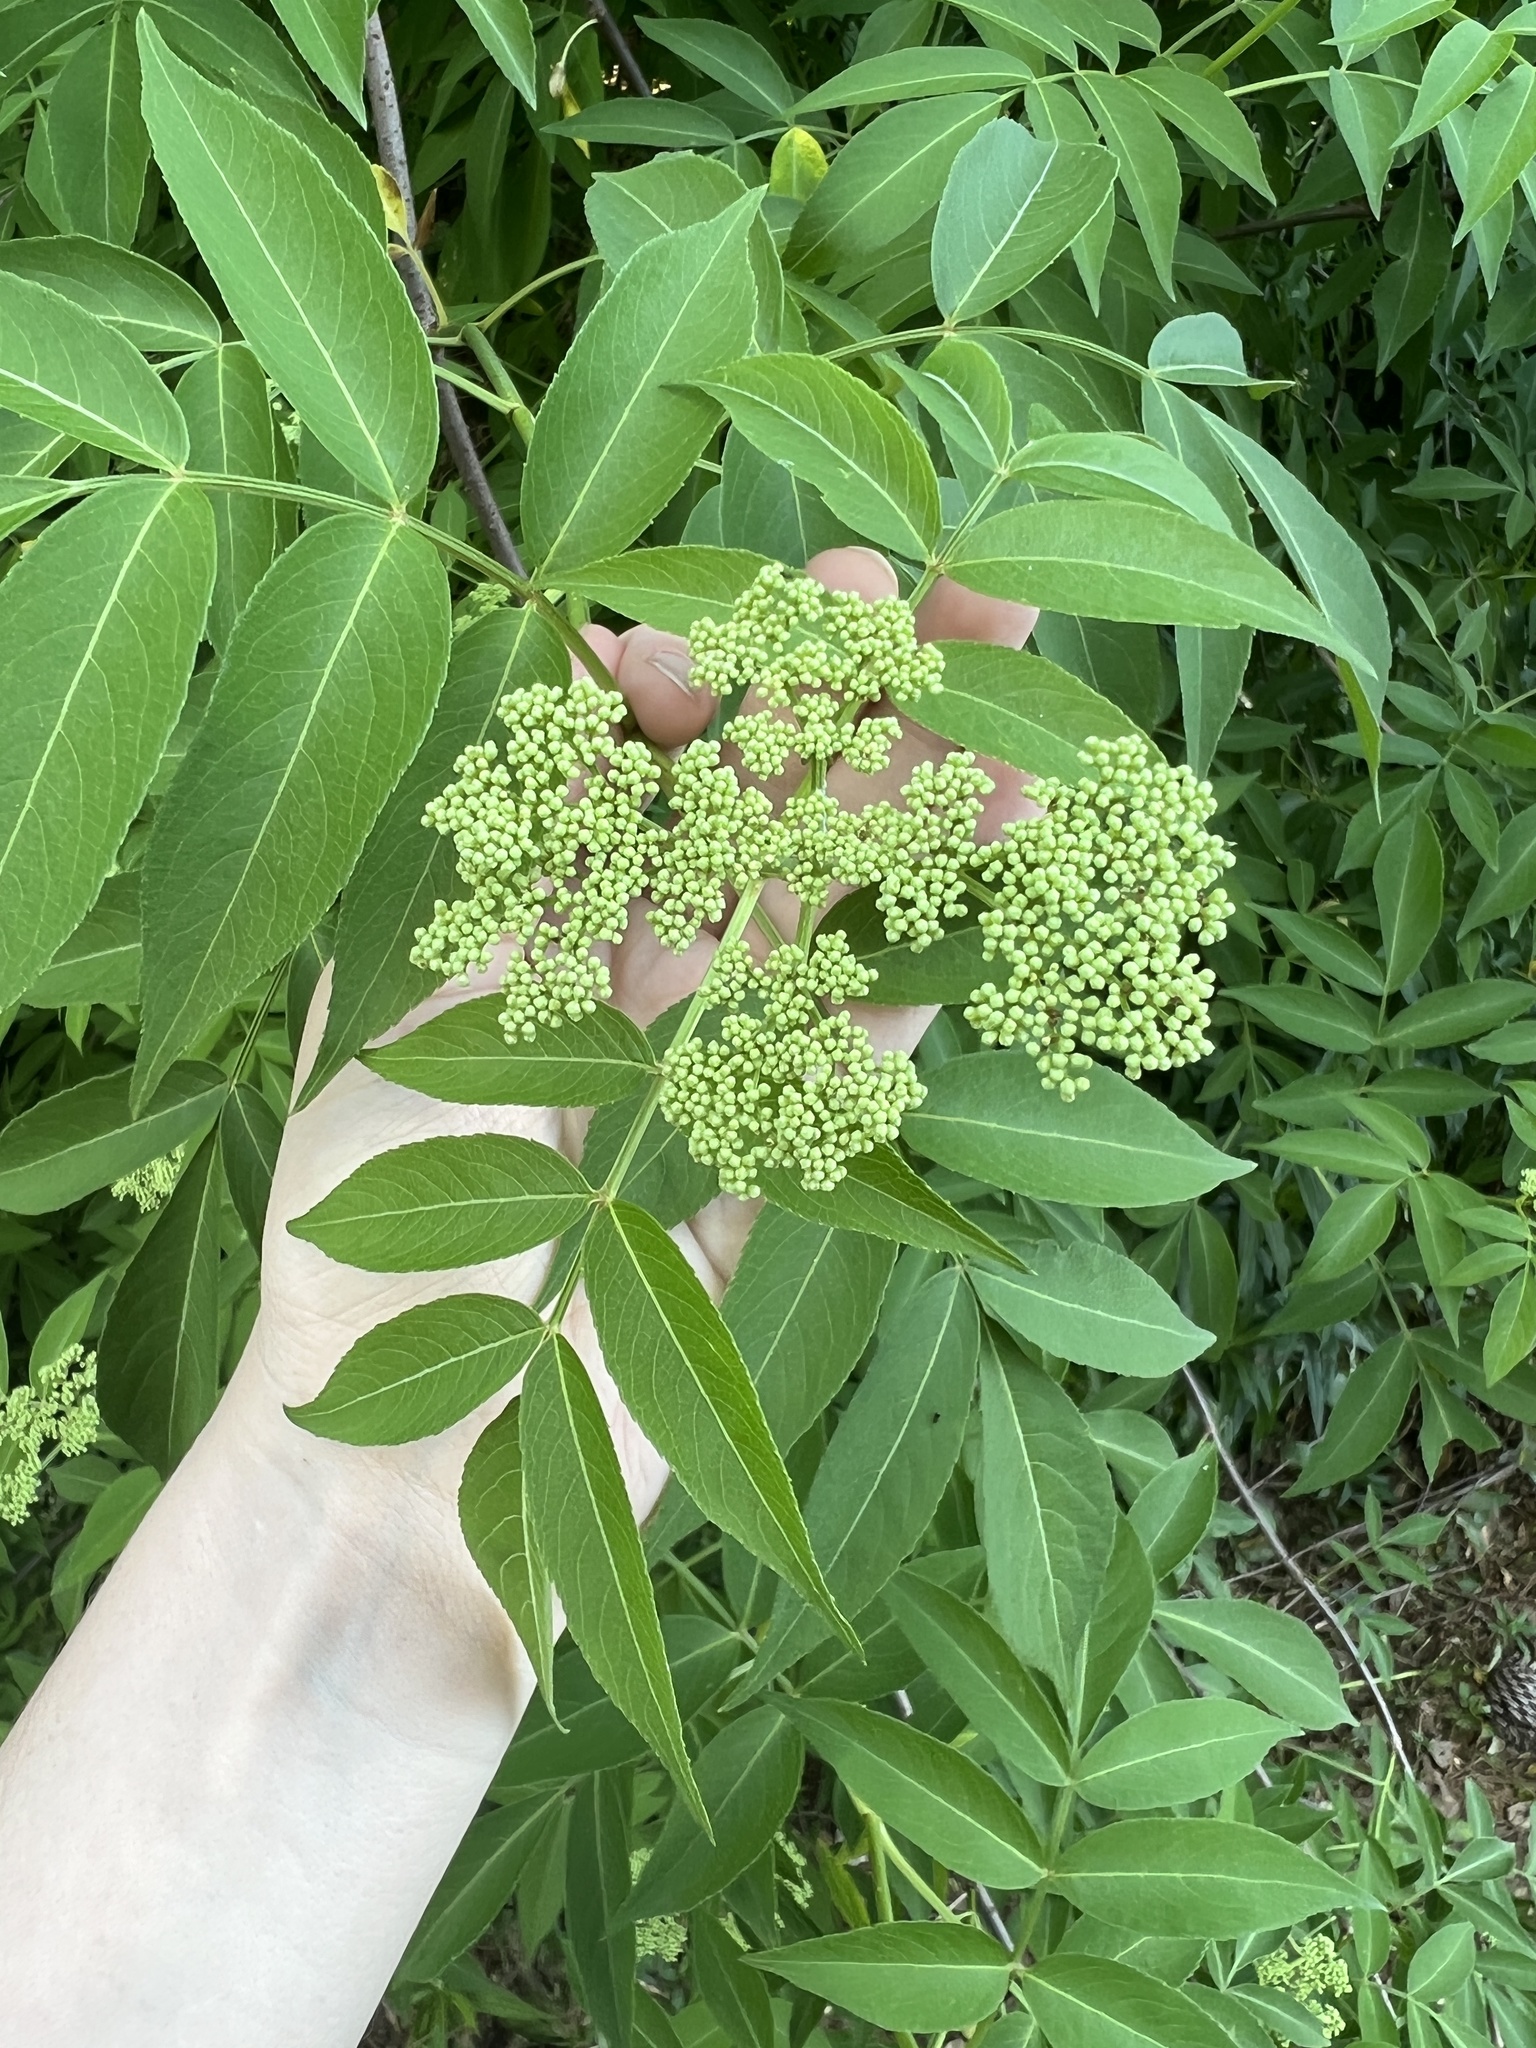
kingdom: Plantae
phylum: Tracheophyta
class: Magnoliopsida
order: Dipsacales
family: Viburnaceae
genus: Sambucus
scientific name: Sambucus canadensis
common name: American elder
